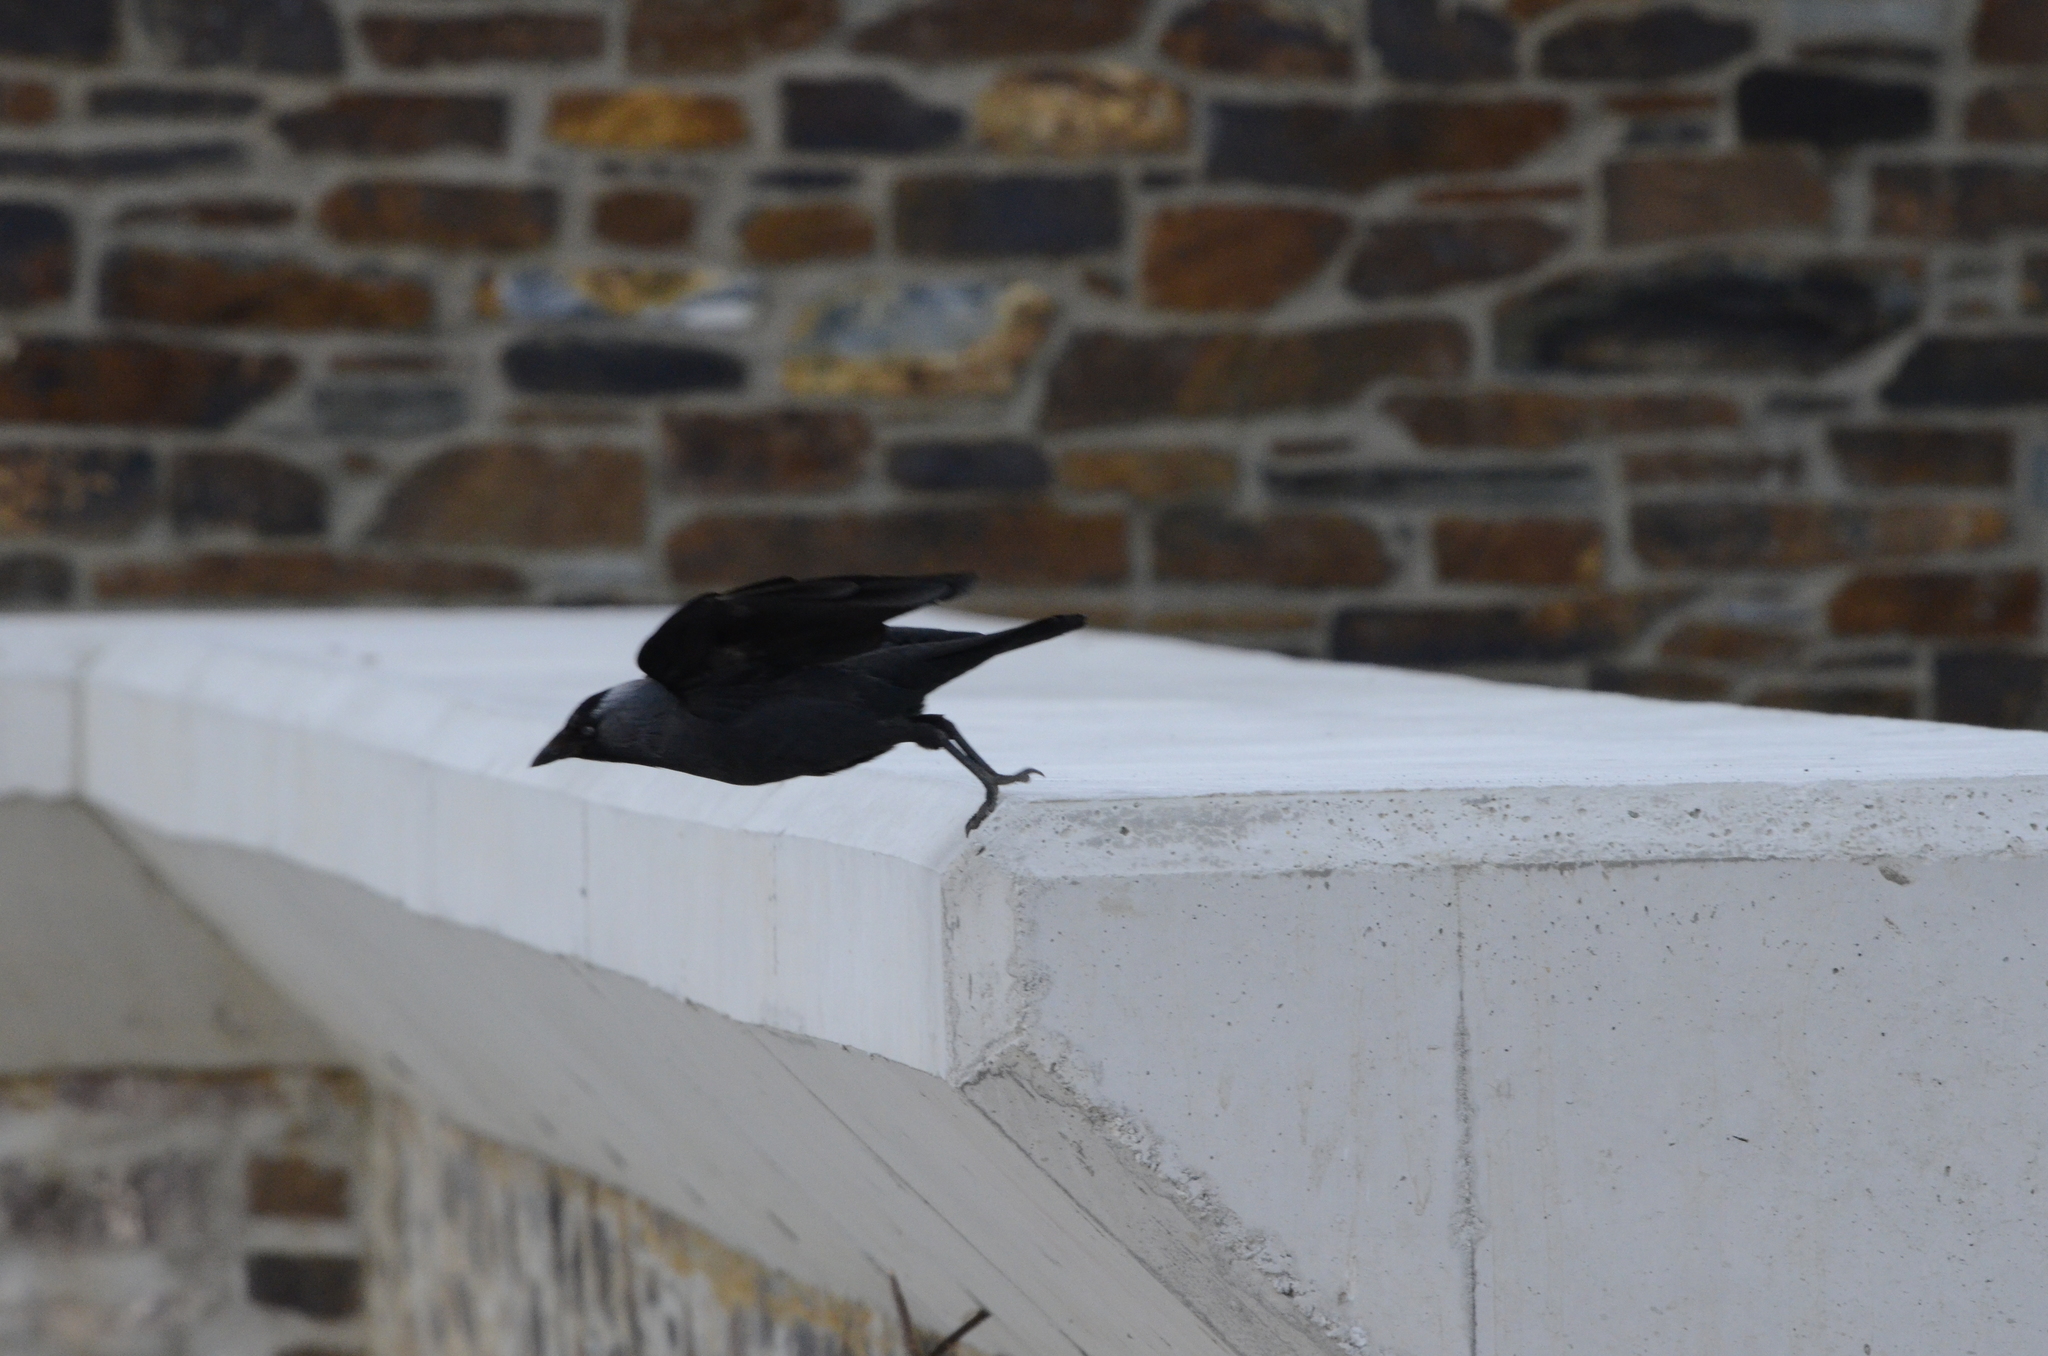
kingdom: Animalia
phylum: Chordata
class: Aves
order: Passeriformes
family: Corvidae
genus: Coloeus
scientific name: Coloeus monedula
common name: Western jackdaw
